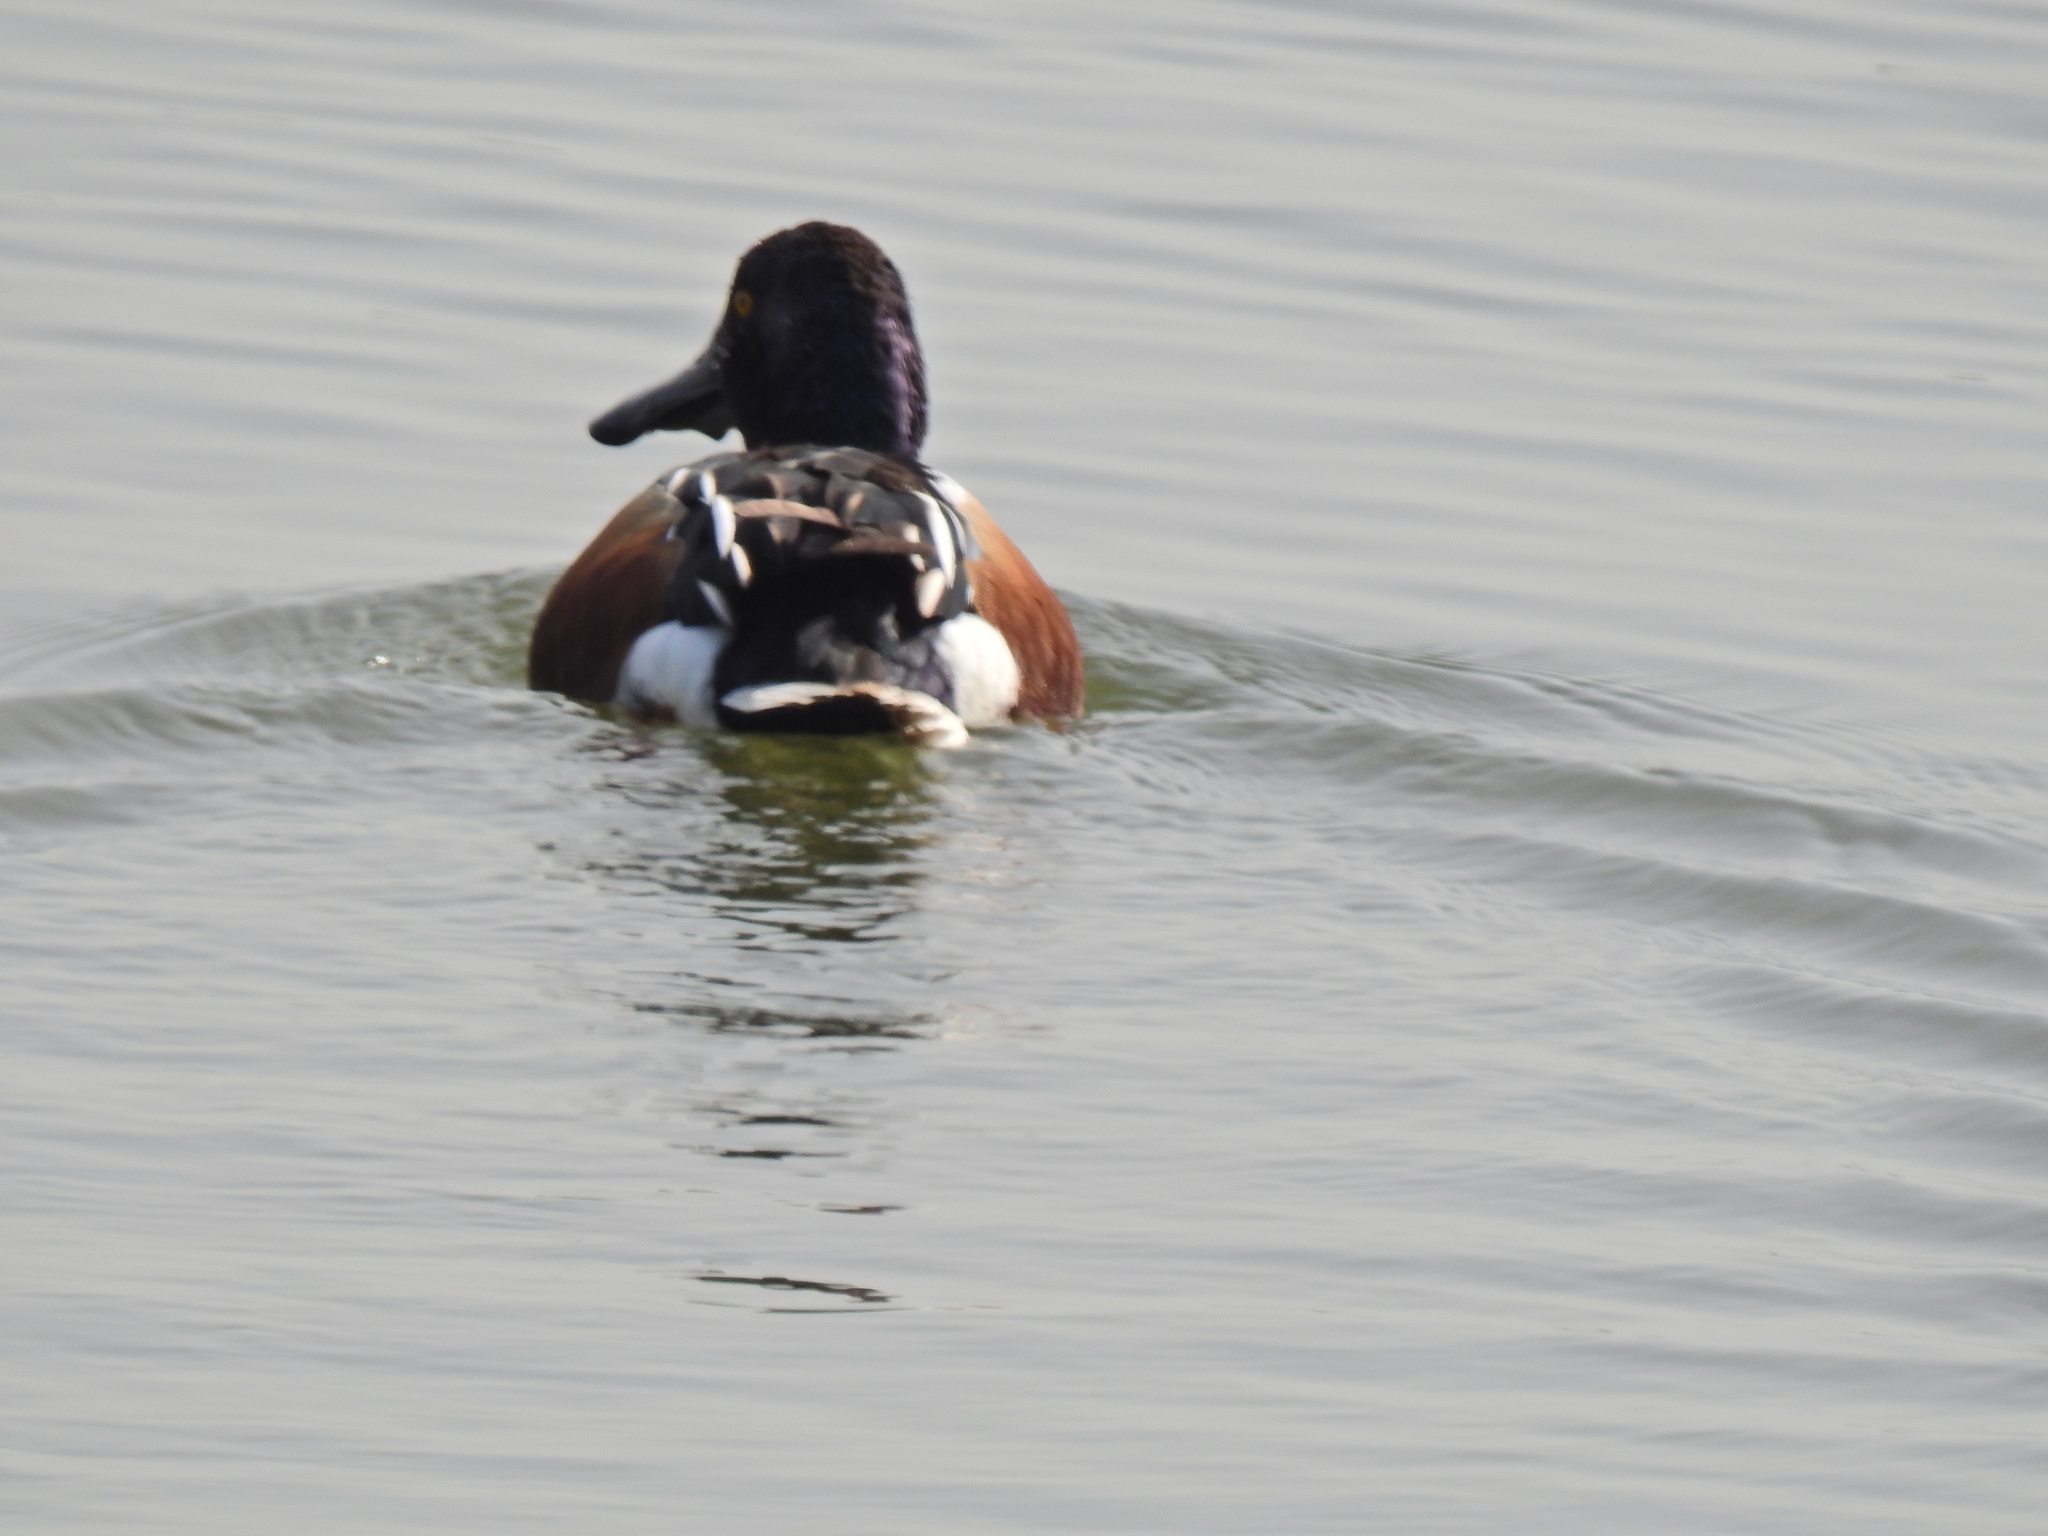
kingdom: Animalia
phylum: Chordata
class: Aves
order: Anseriformes
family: Anatidae
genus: Spatula
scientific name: Spatula clypeata
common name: Northern shoveler
